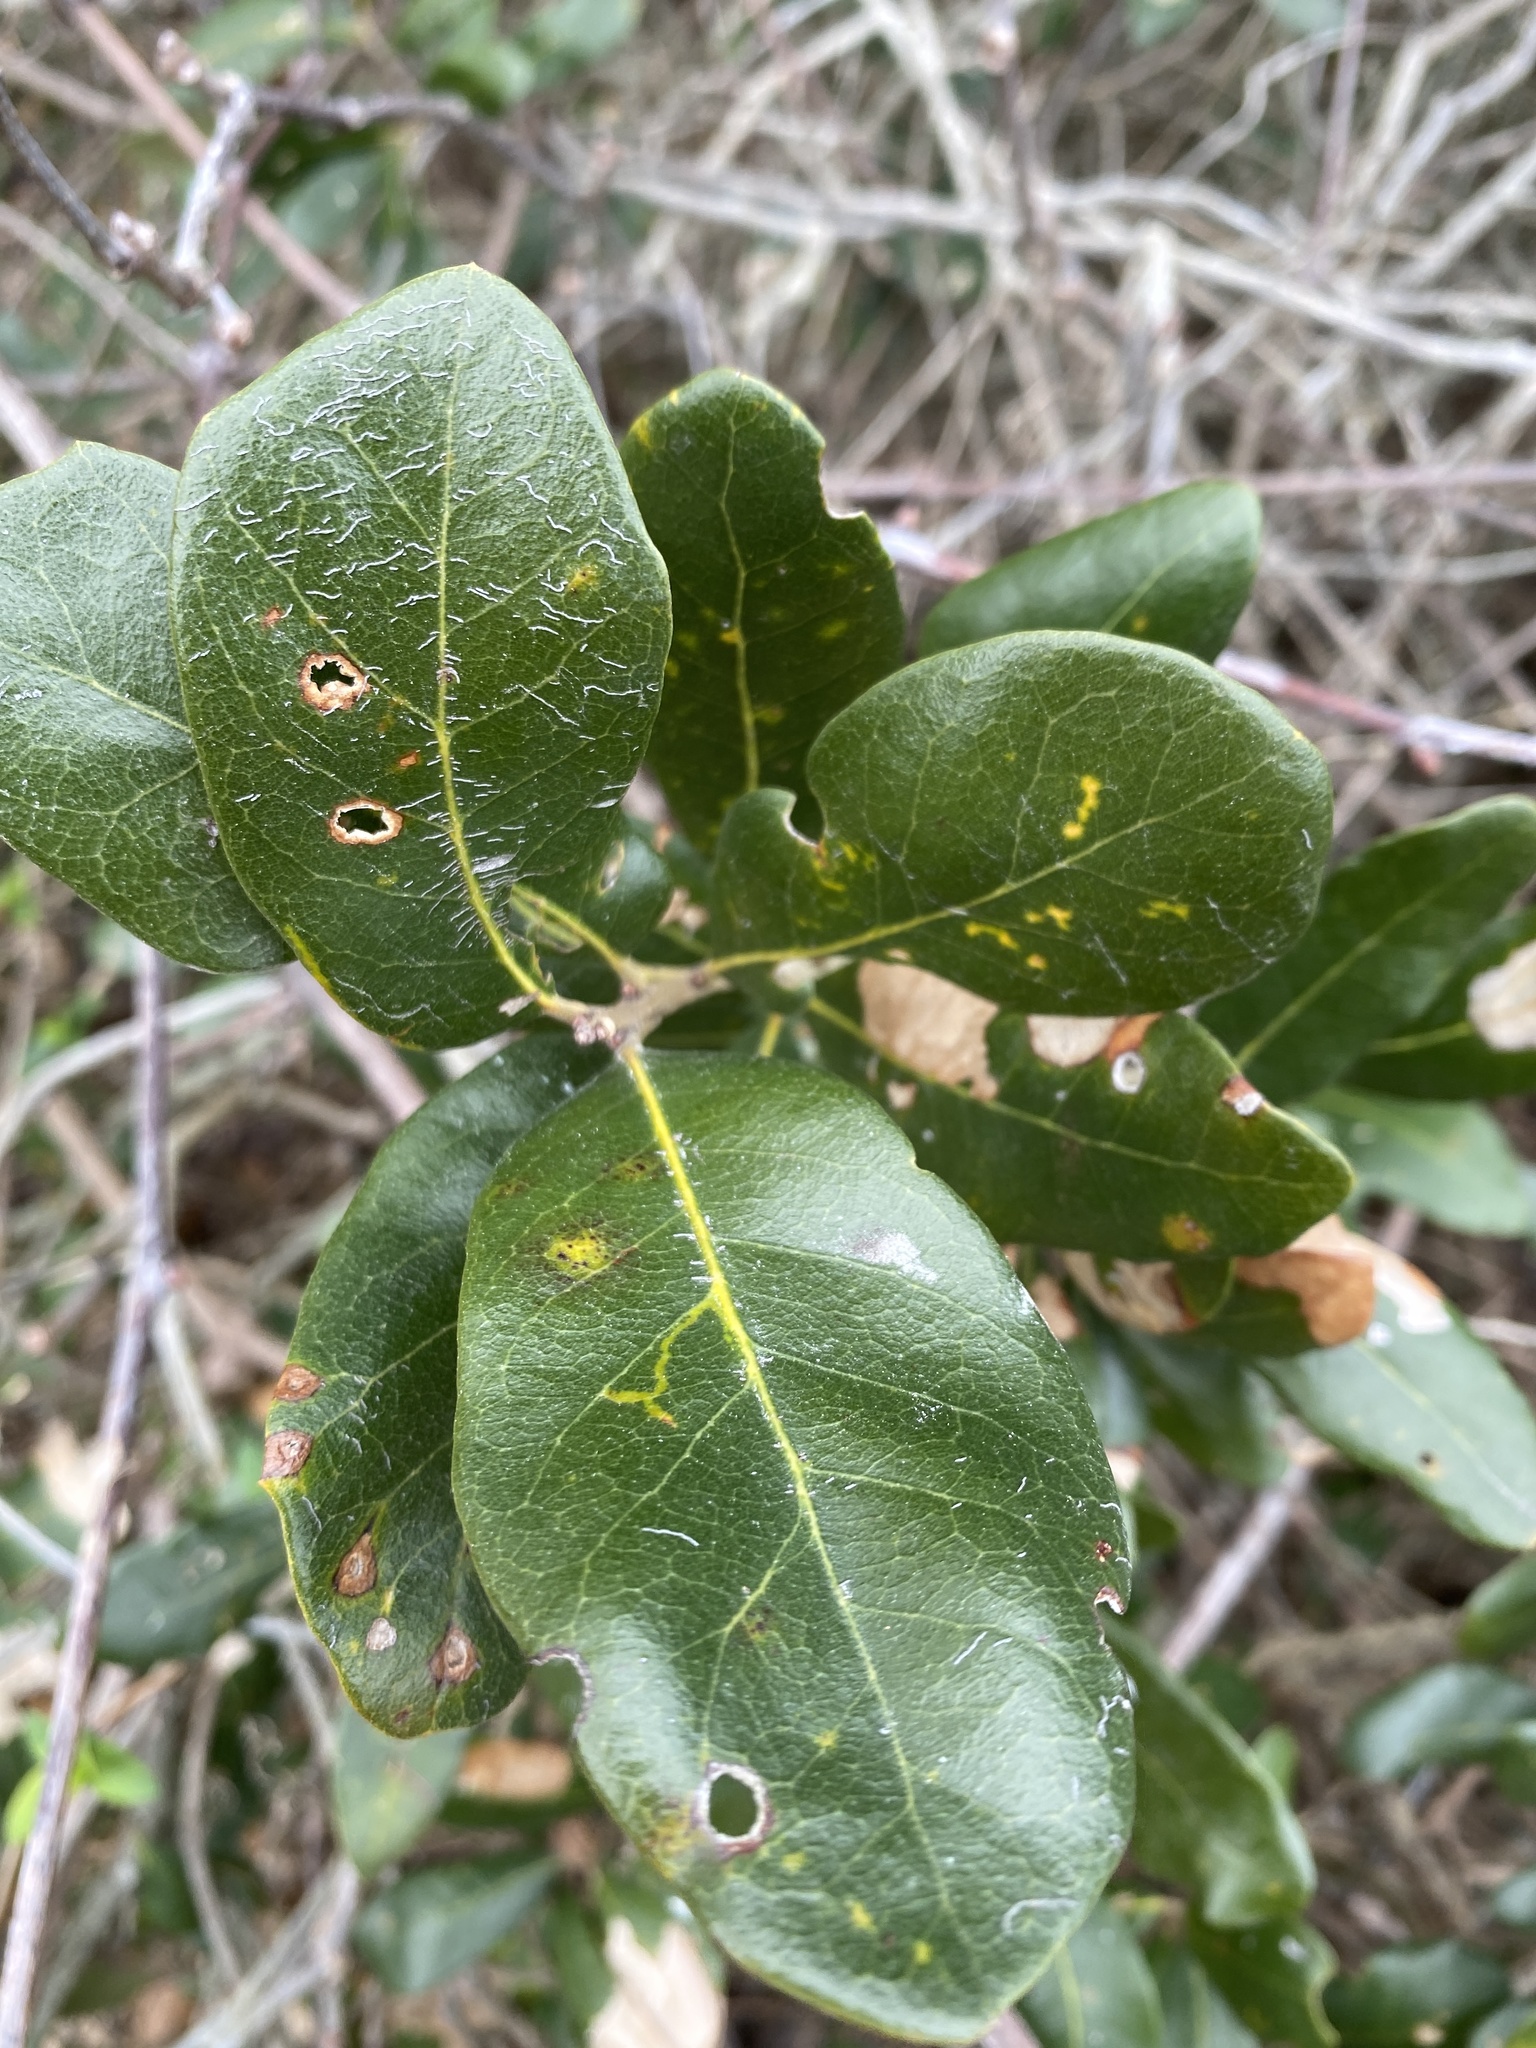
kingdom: Plantae
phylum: Tracheophyta
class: Magnoliopsida
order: Fagales
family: Fagaceae
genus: Quercus
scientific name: Quercus virginiana
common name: Southern live oak
